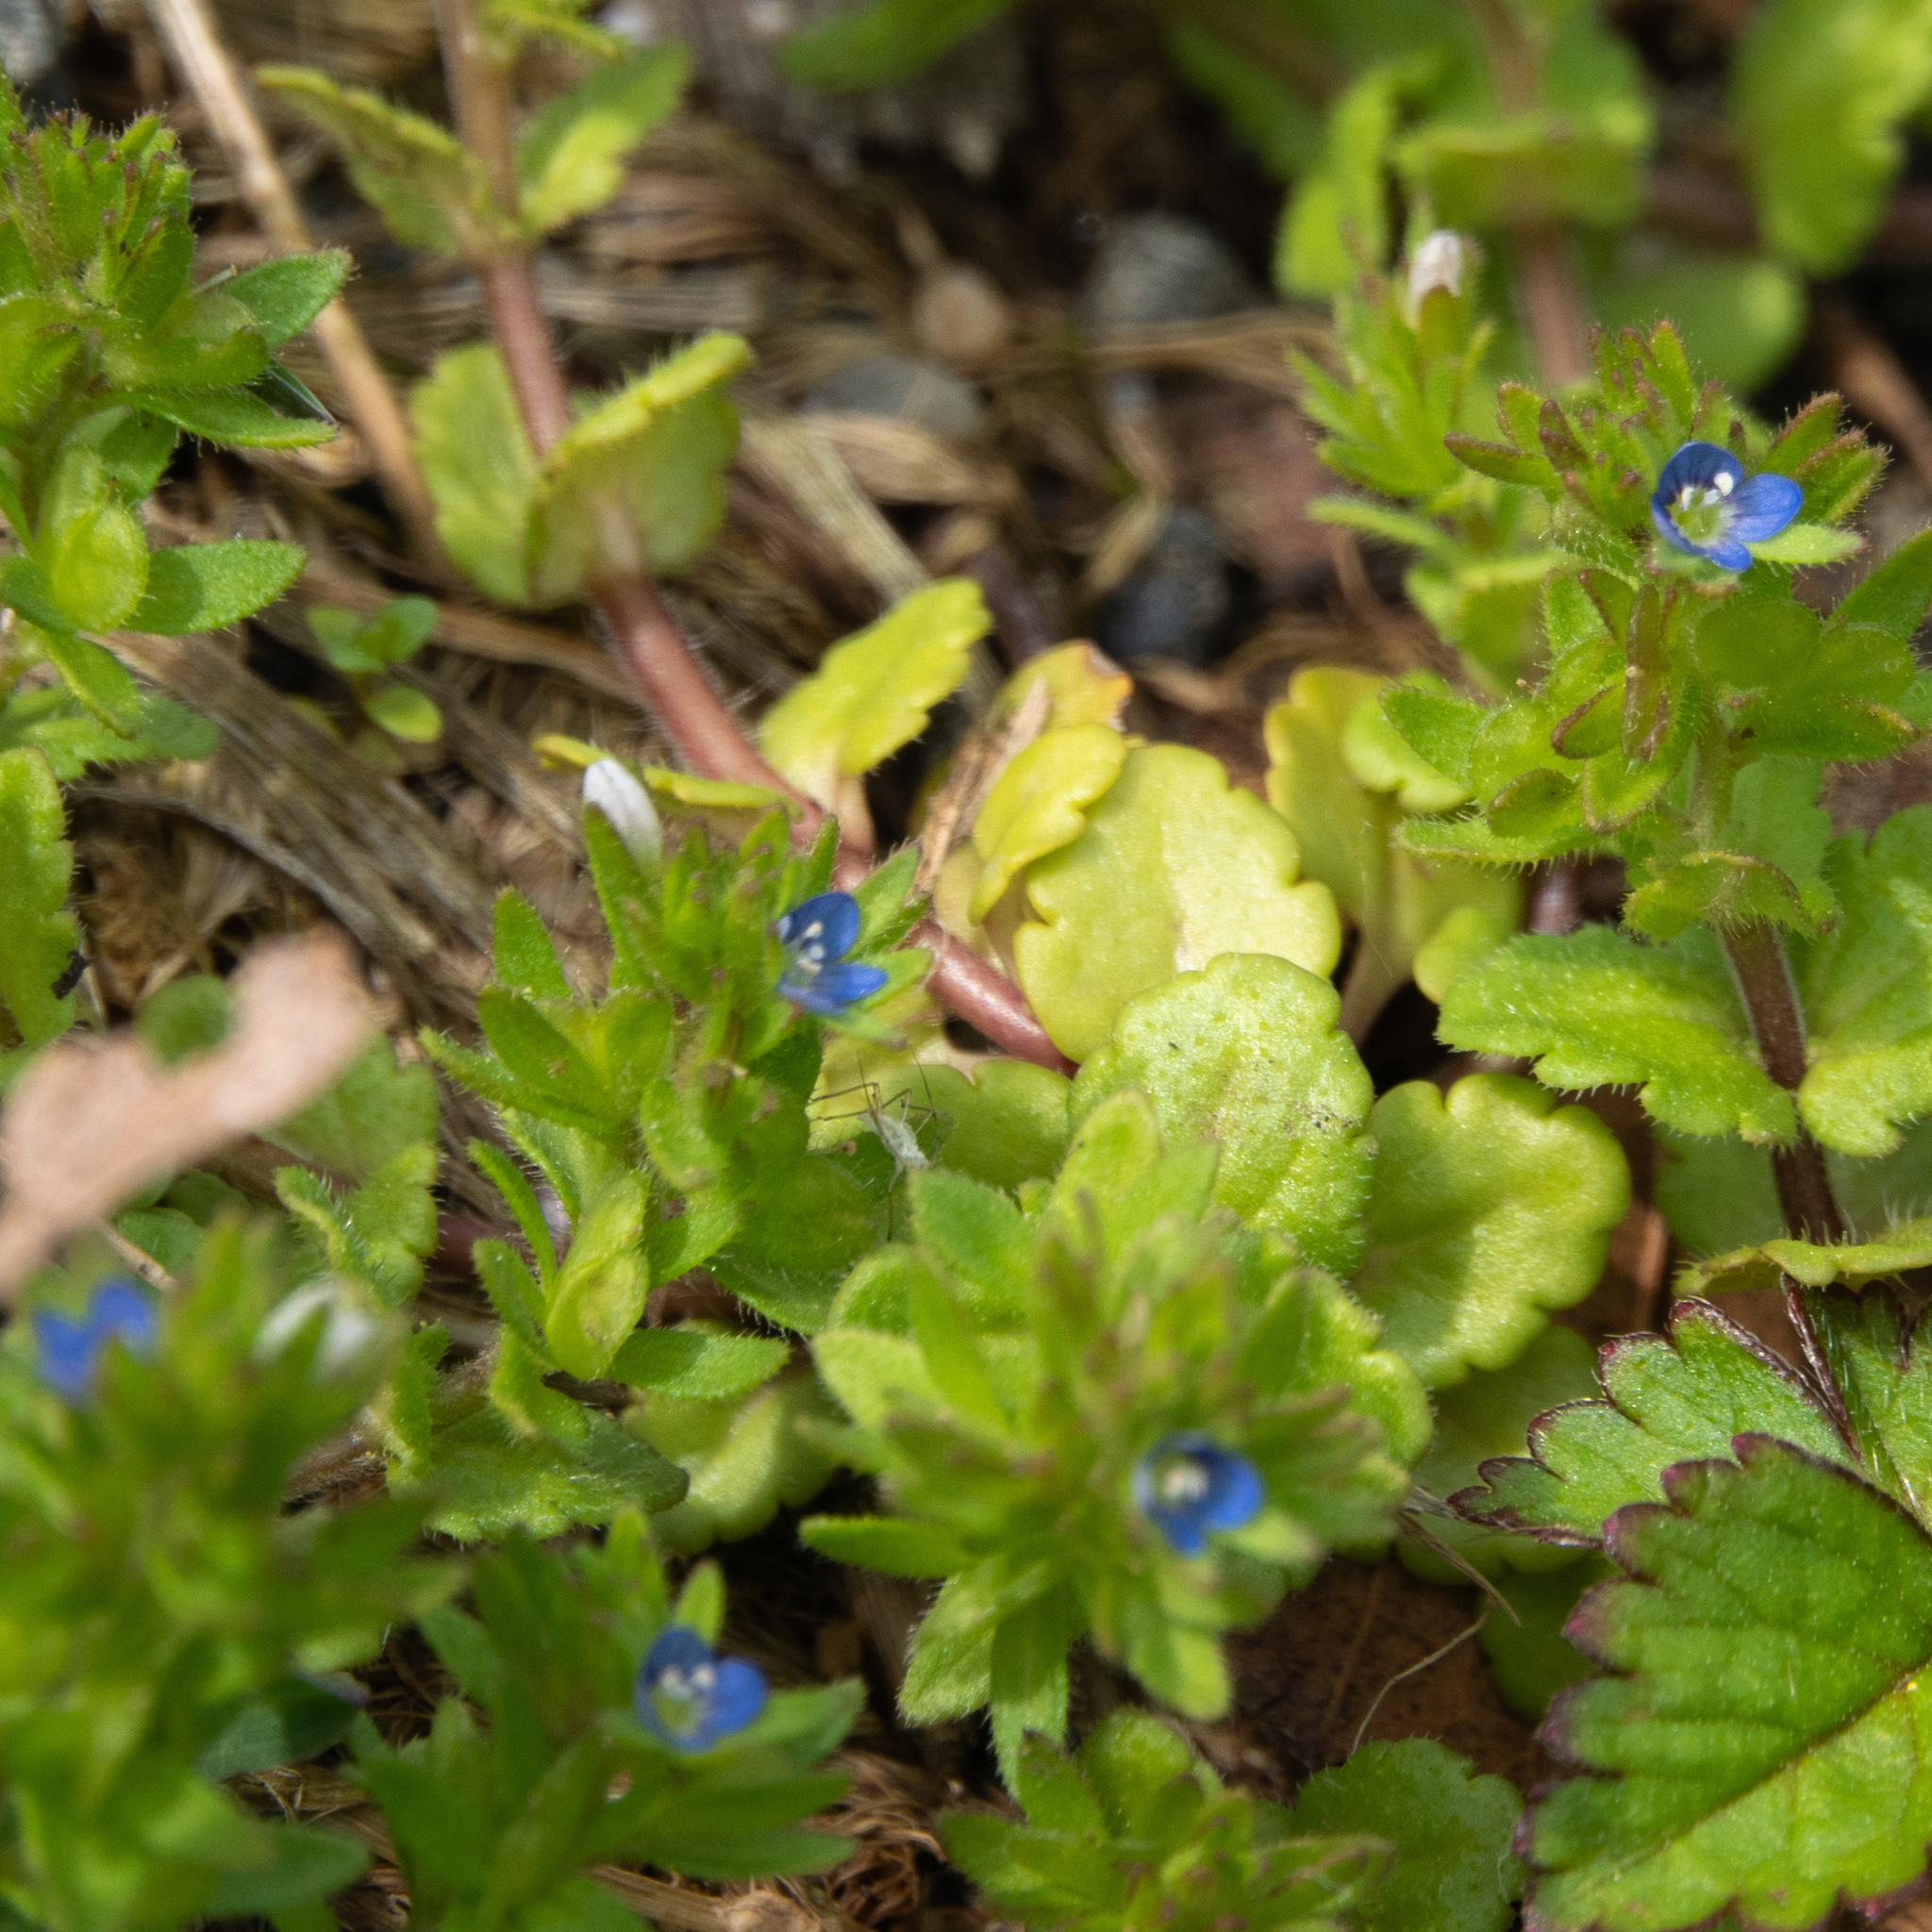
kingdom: Plantae
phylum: Tracheophyta
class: Magnoliopsida
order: Lamiales
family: Plantaginaceae
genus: Veronica
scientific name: Veronica arvensis
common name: Corn speedwell
